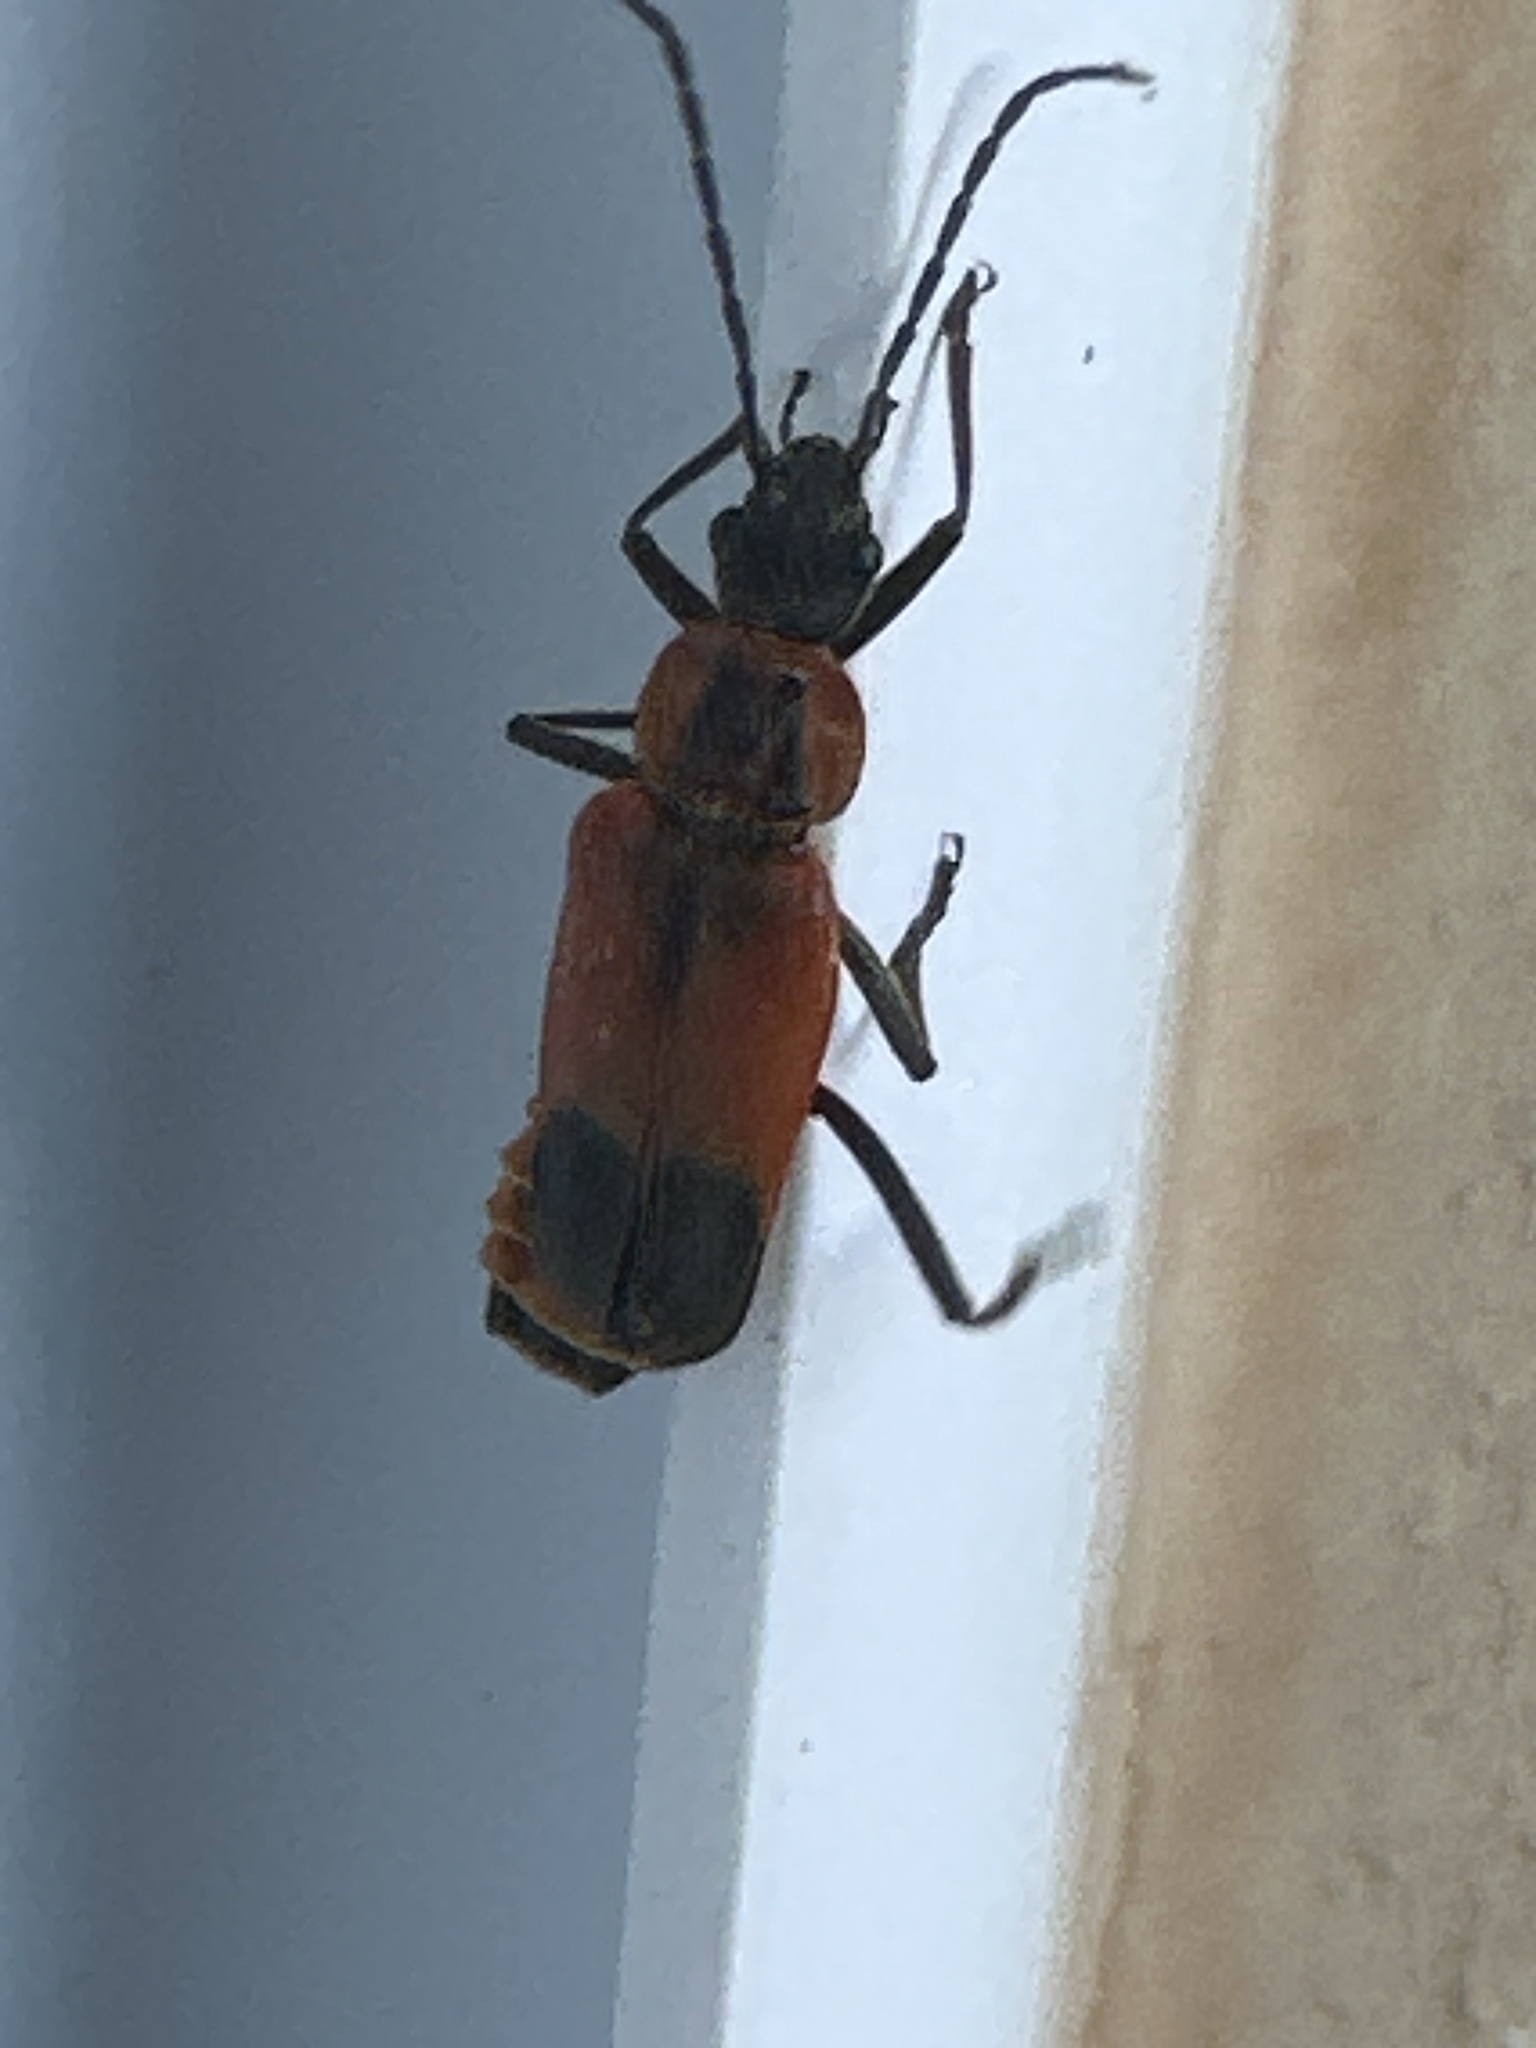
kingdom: Animalia
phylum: Arthropoda
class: Insecta
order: Coleoptera
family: Cantharidae
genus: Chauliognathus
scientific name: Chauliognathus limbicollis
